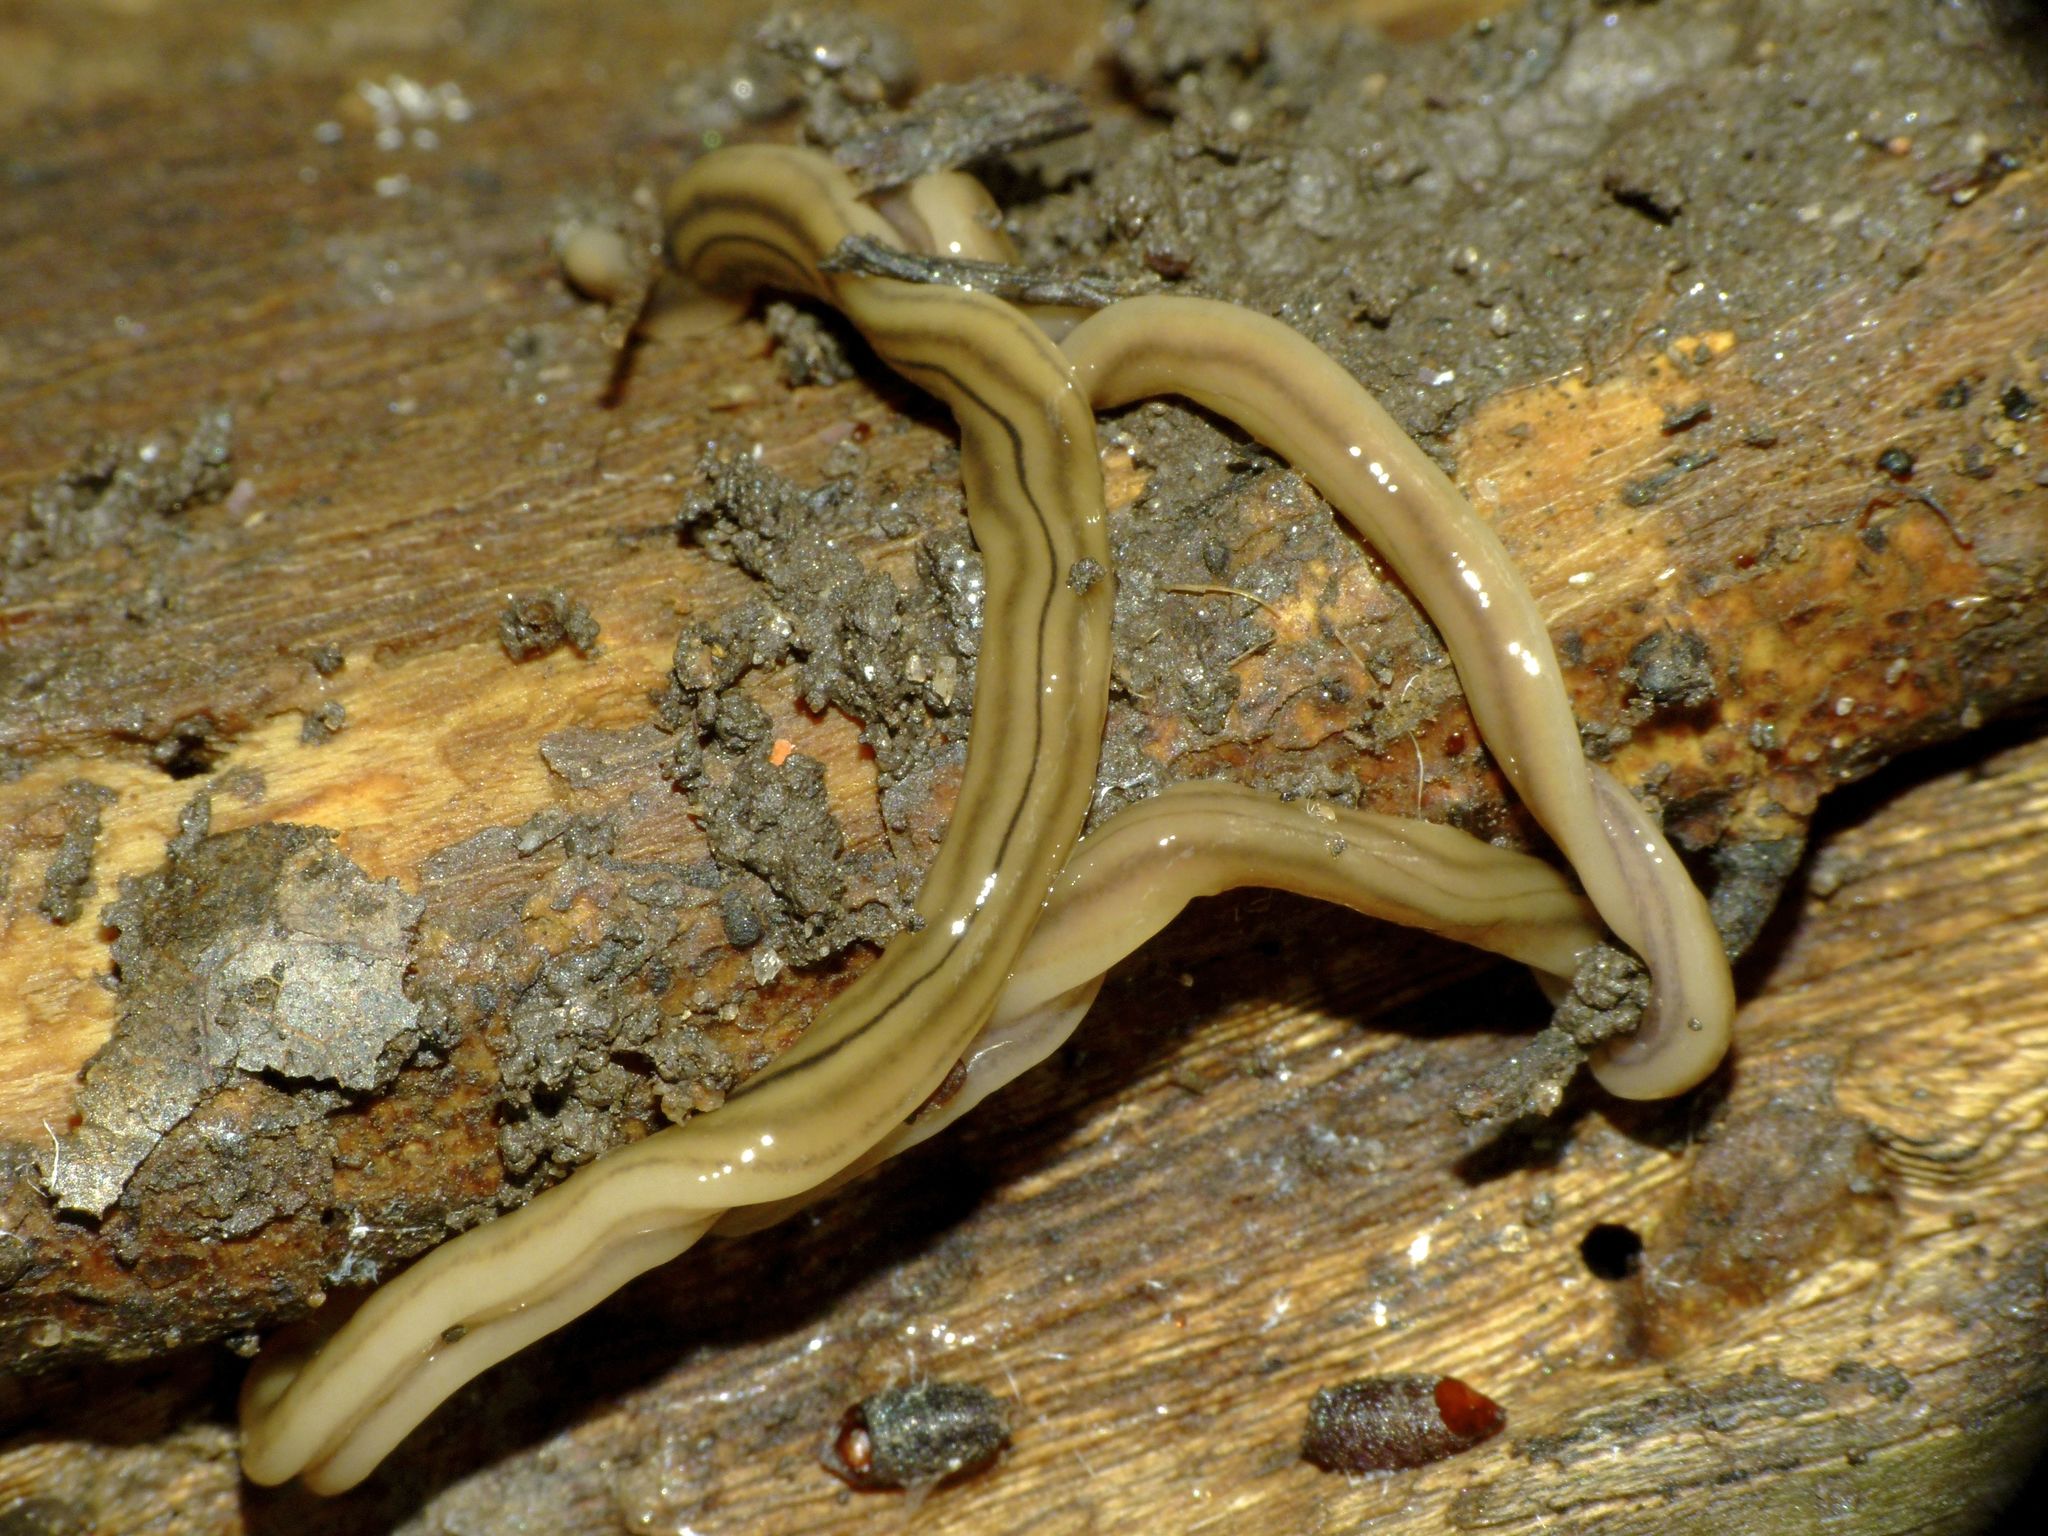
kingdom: Animalia
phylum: Platyhelminthes
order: Tricladida
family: Geoplanidae
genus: Bipalium
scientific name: Bipalium kewense
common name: Hammerhead flatworm
